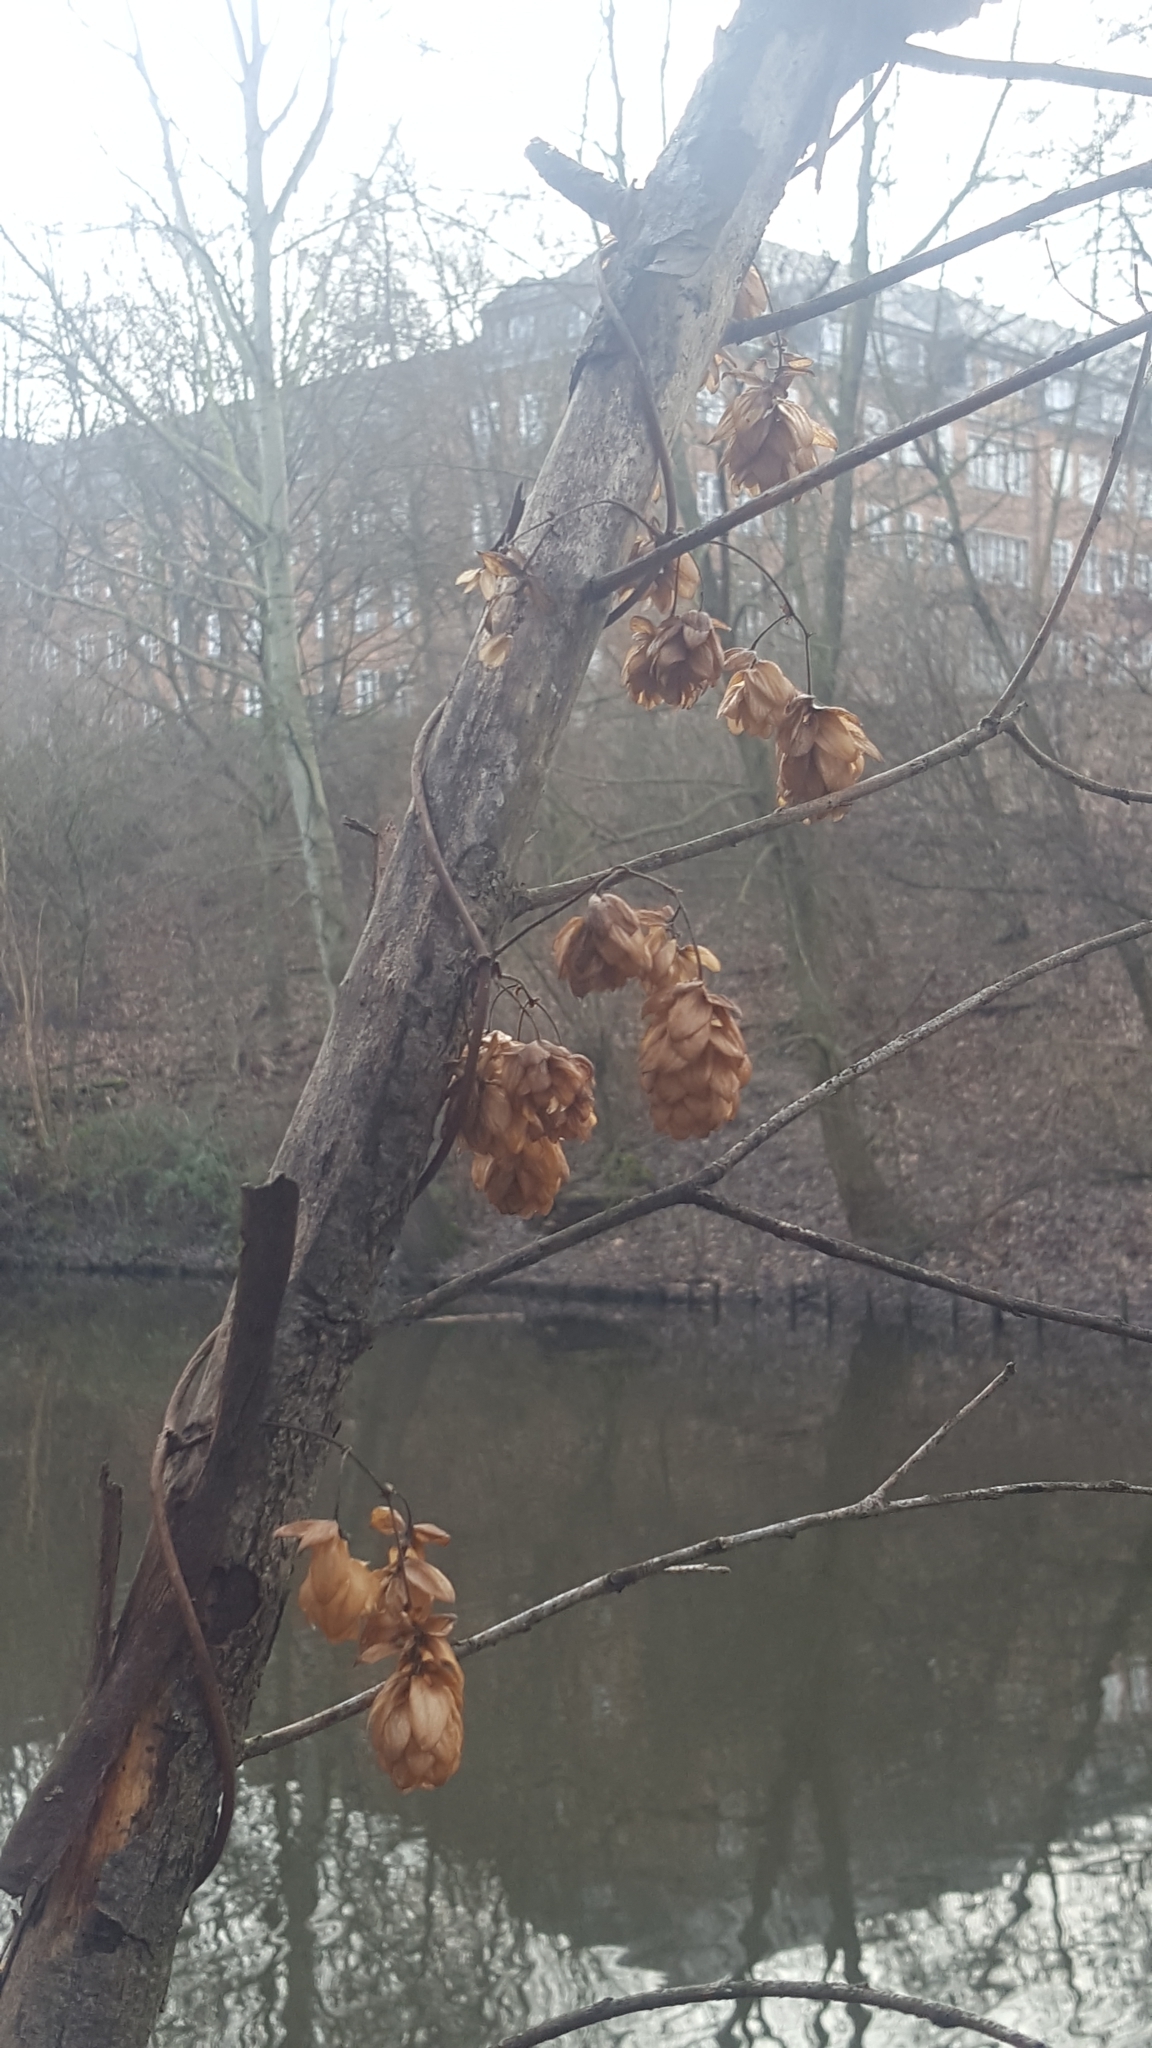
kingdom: Plantae
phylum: Tracheophyta
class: Magnoliopsida
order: Rosales
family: Cannabaceae
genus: Humulus
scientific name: Humulus lupulus
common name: Hop
